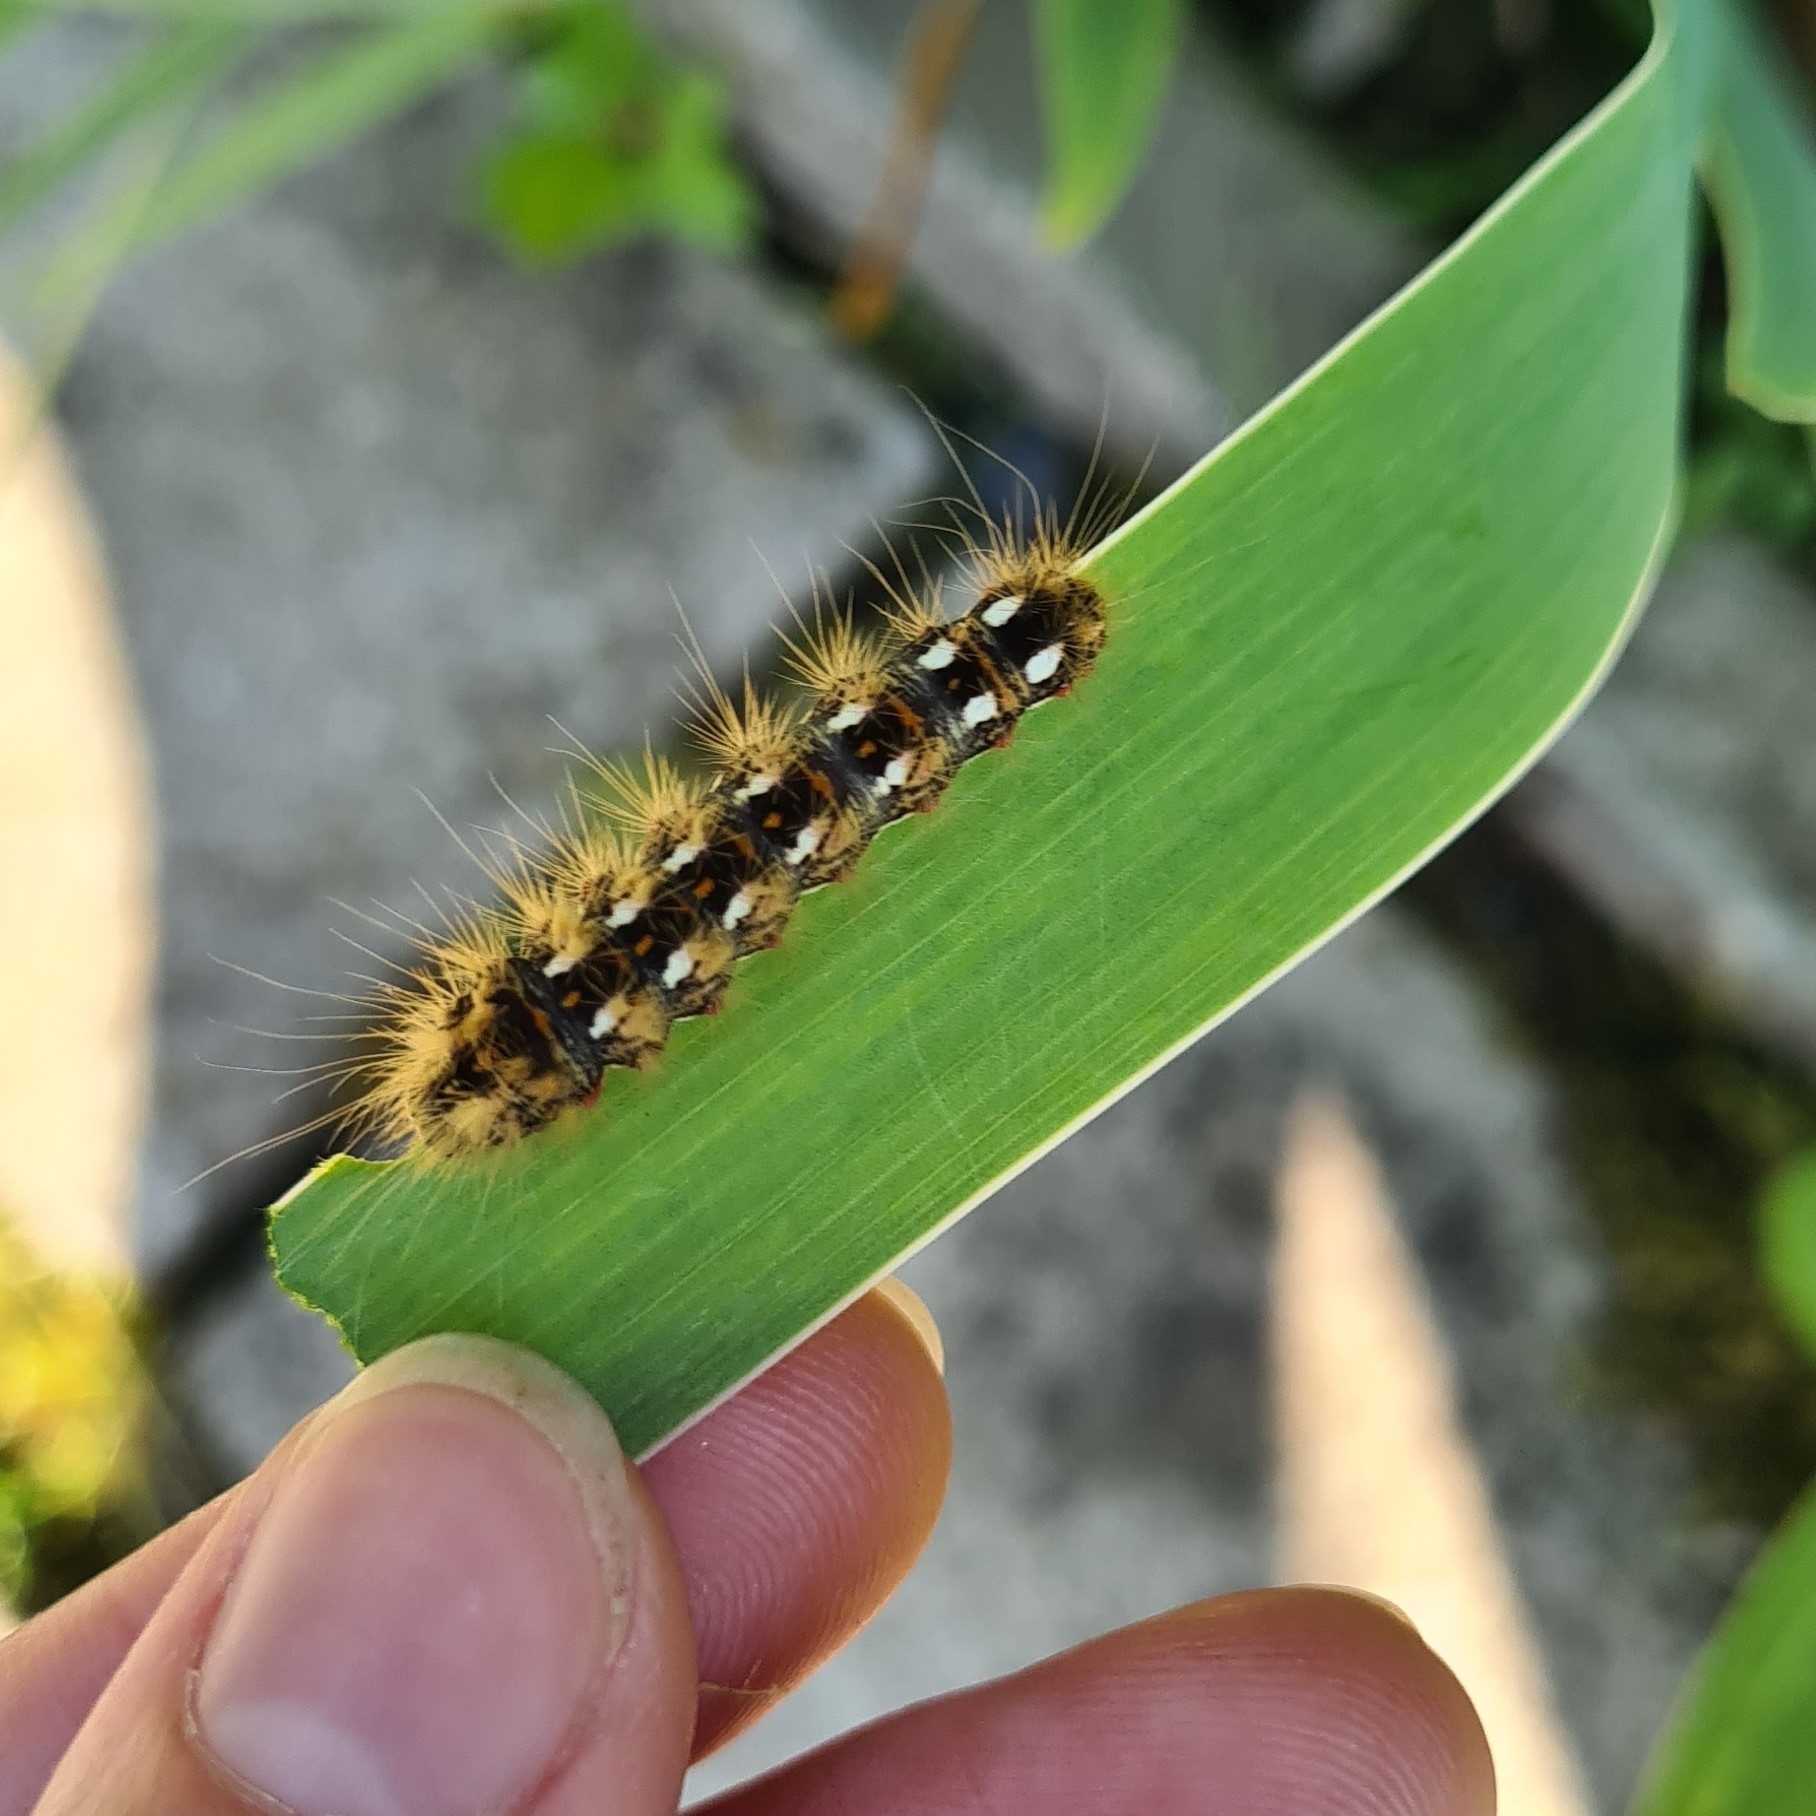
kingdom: Animalia
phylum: Arthropoda
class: Insecta
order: Lepidoptera
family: Noctuidae
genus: Acronicta
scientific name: Acronicta rumicis
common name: Knot grass
